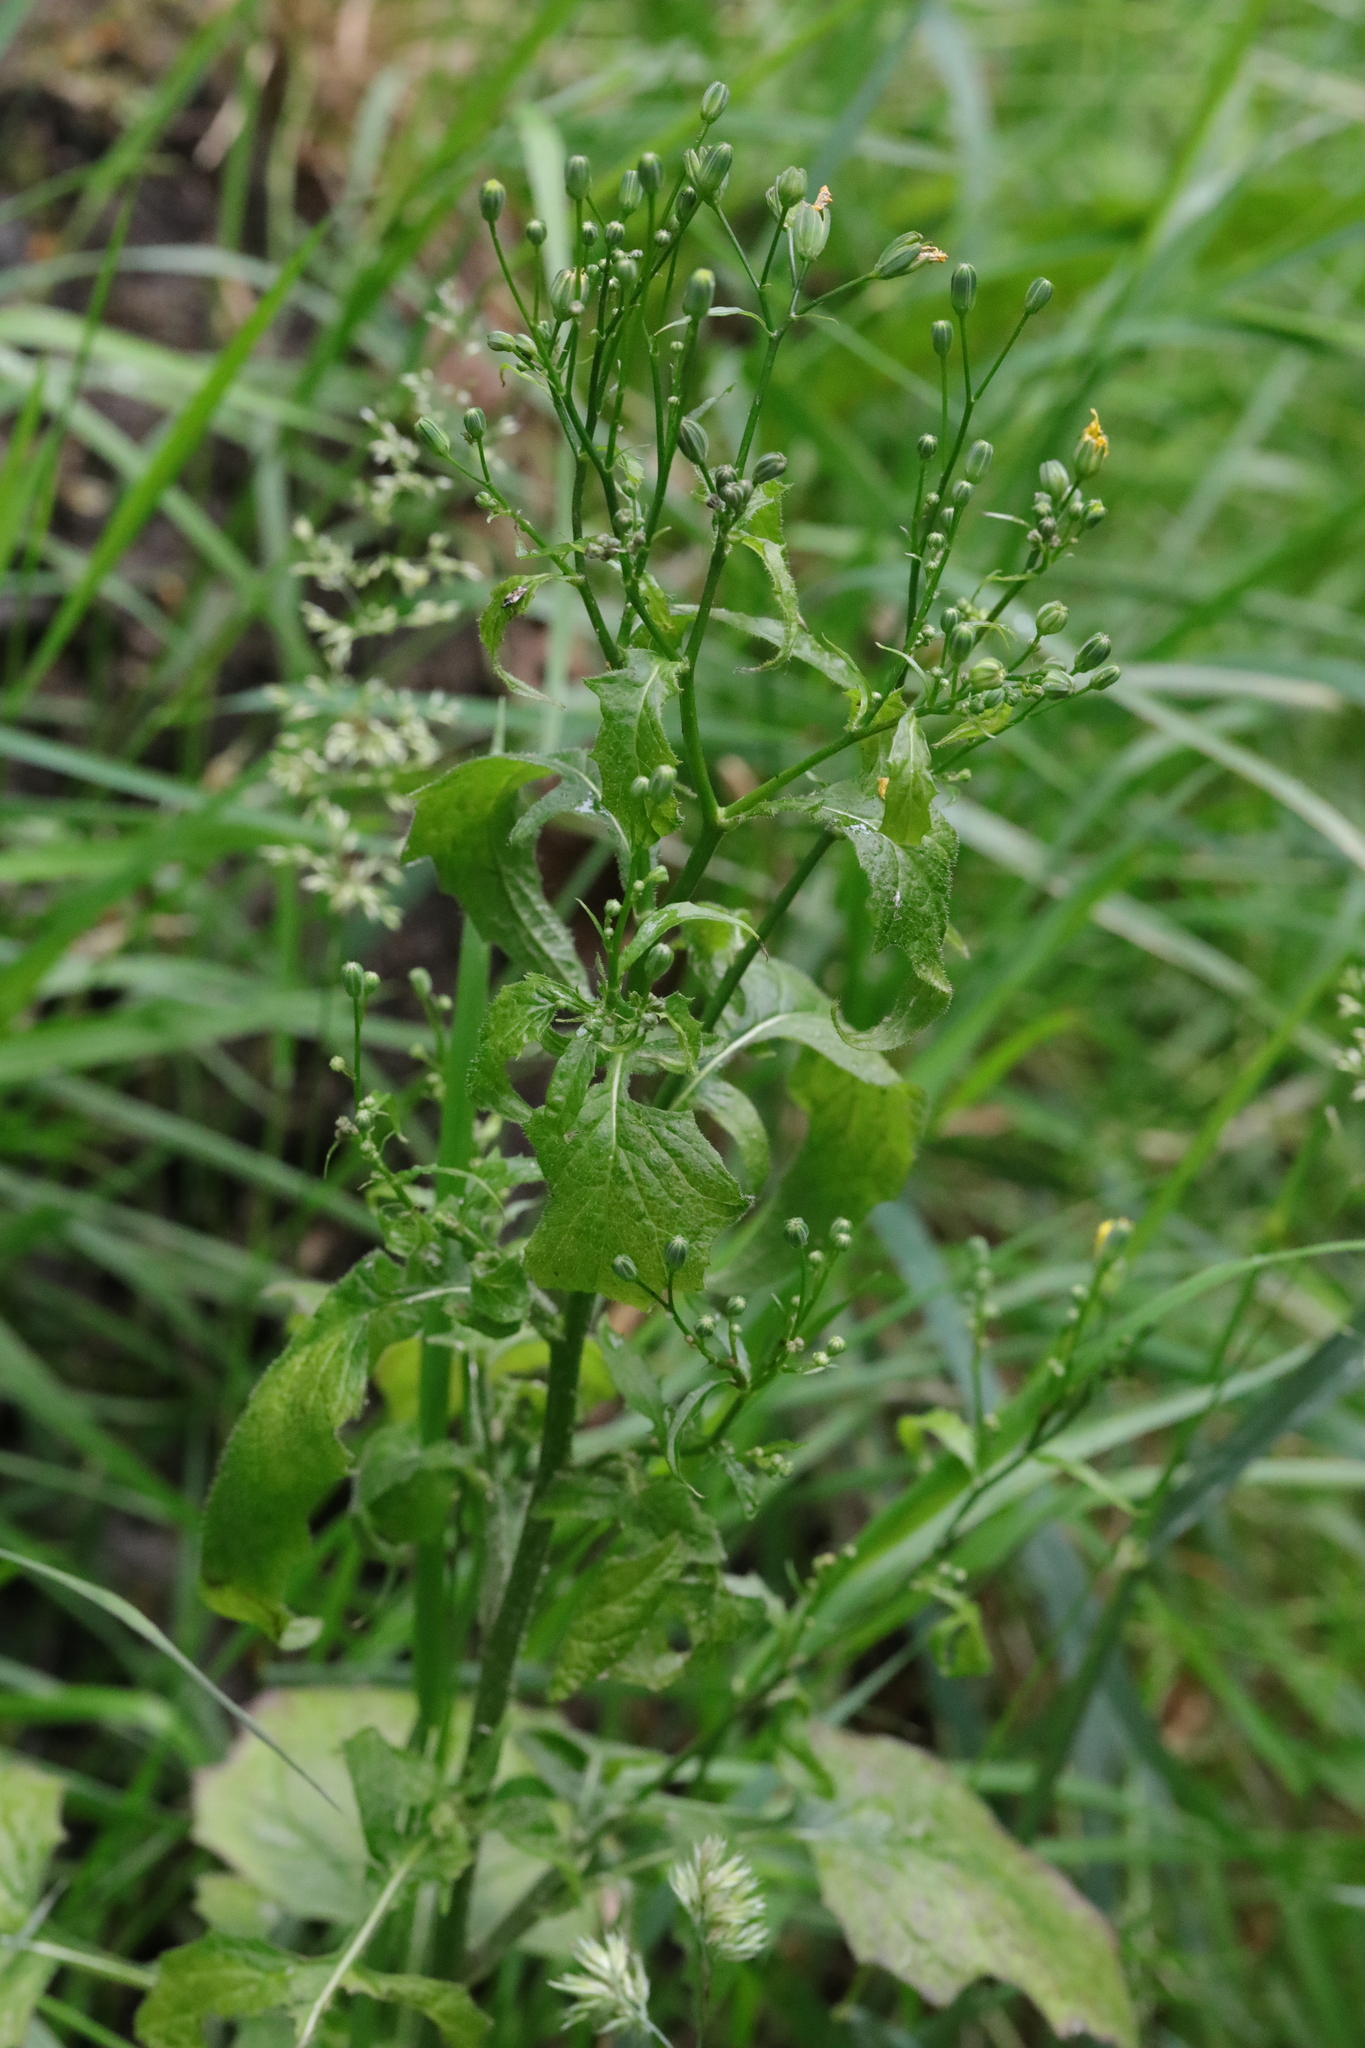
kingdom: Plantae
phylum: Tracheophyta
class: Magnoliopsida
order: Asterales
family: Asteraceae
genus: Lapsana
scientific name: Lapsana communis
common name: Nipplewort
